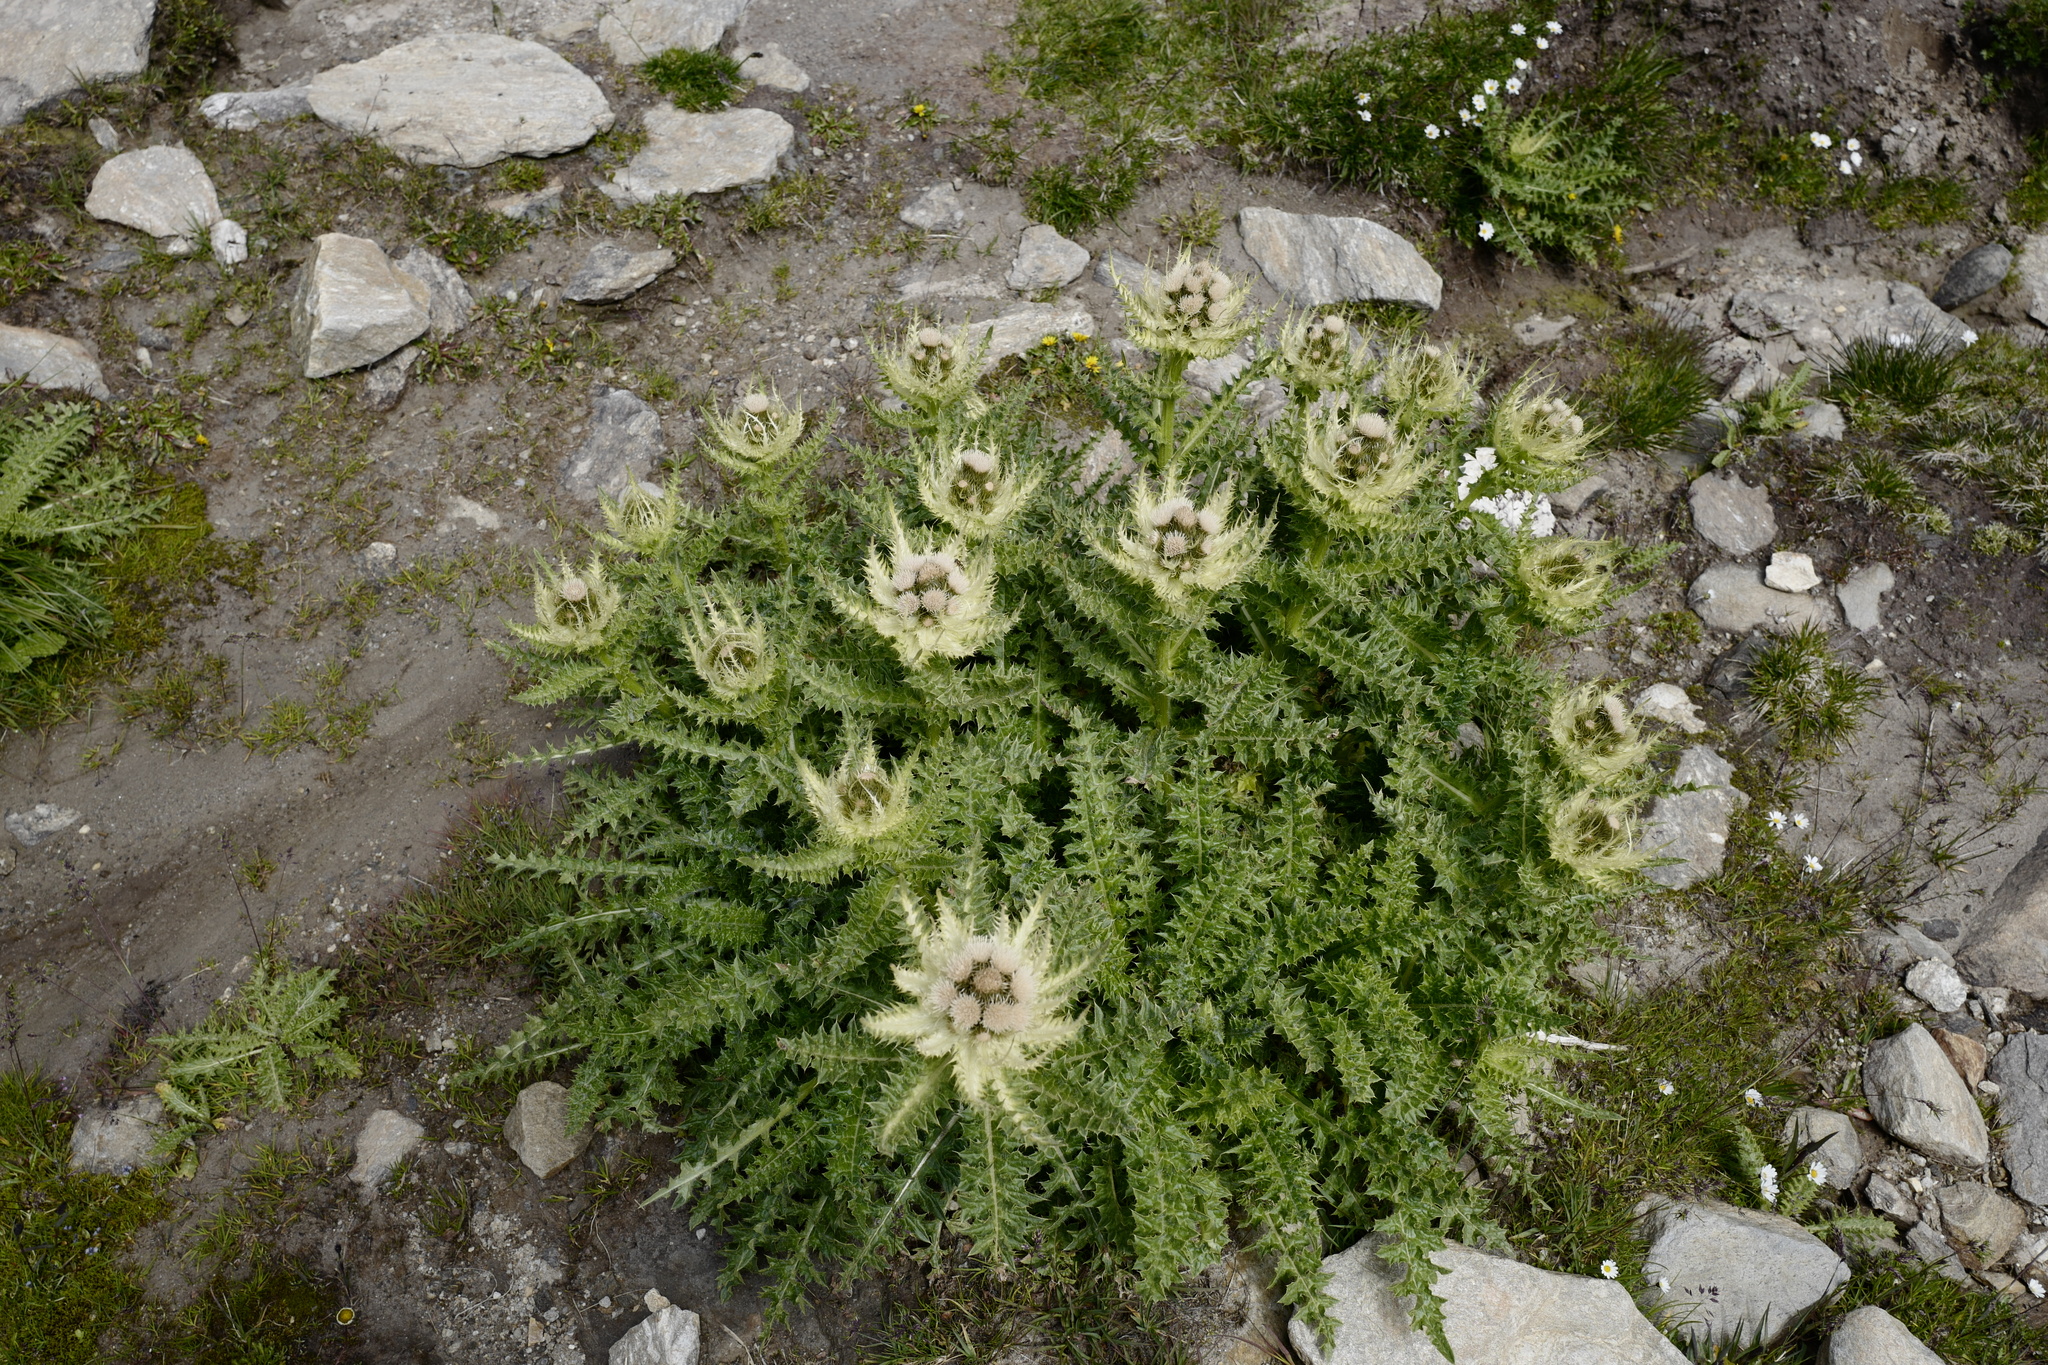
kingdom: Plantae
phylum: Tracheophyta
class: Magnoliopsida
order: Asterales
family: Asteraceae
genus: Cirsium
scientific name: Cirsium spinosissimum
